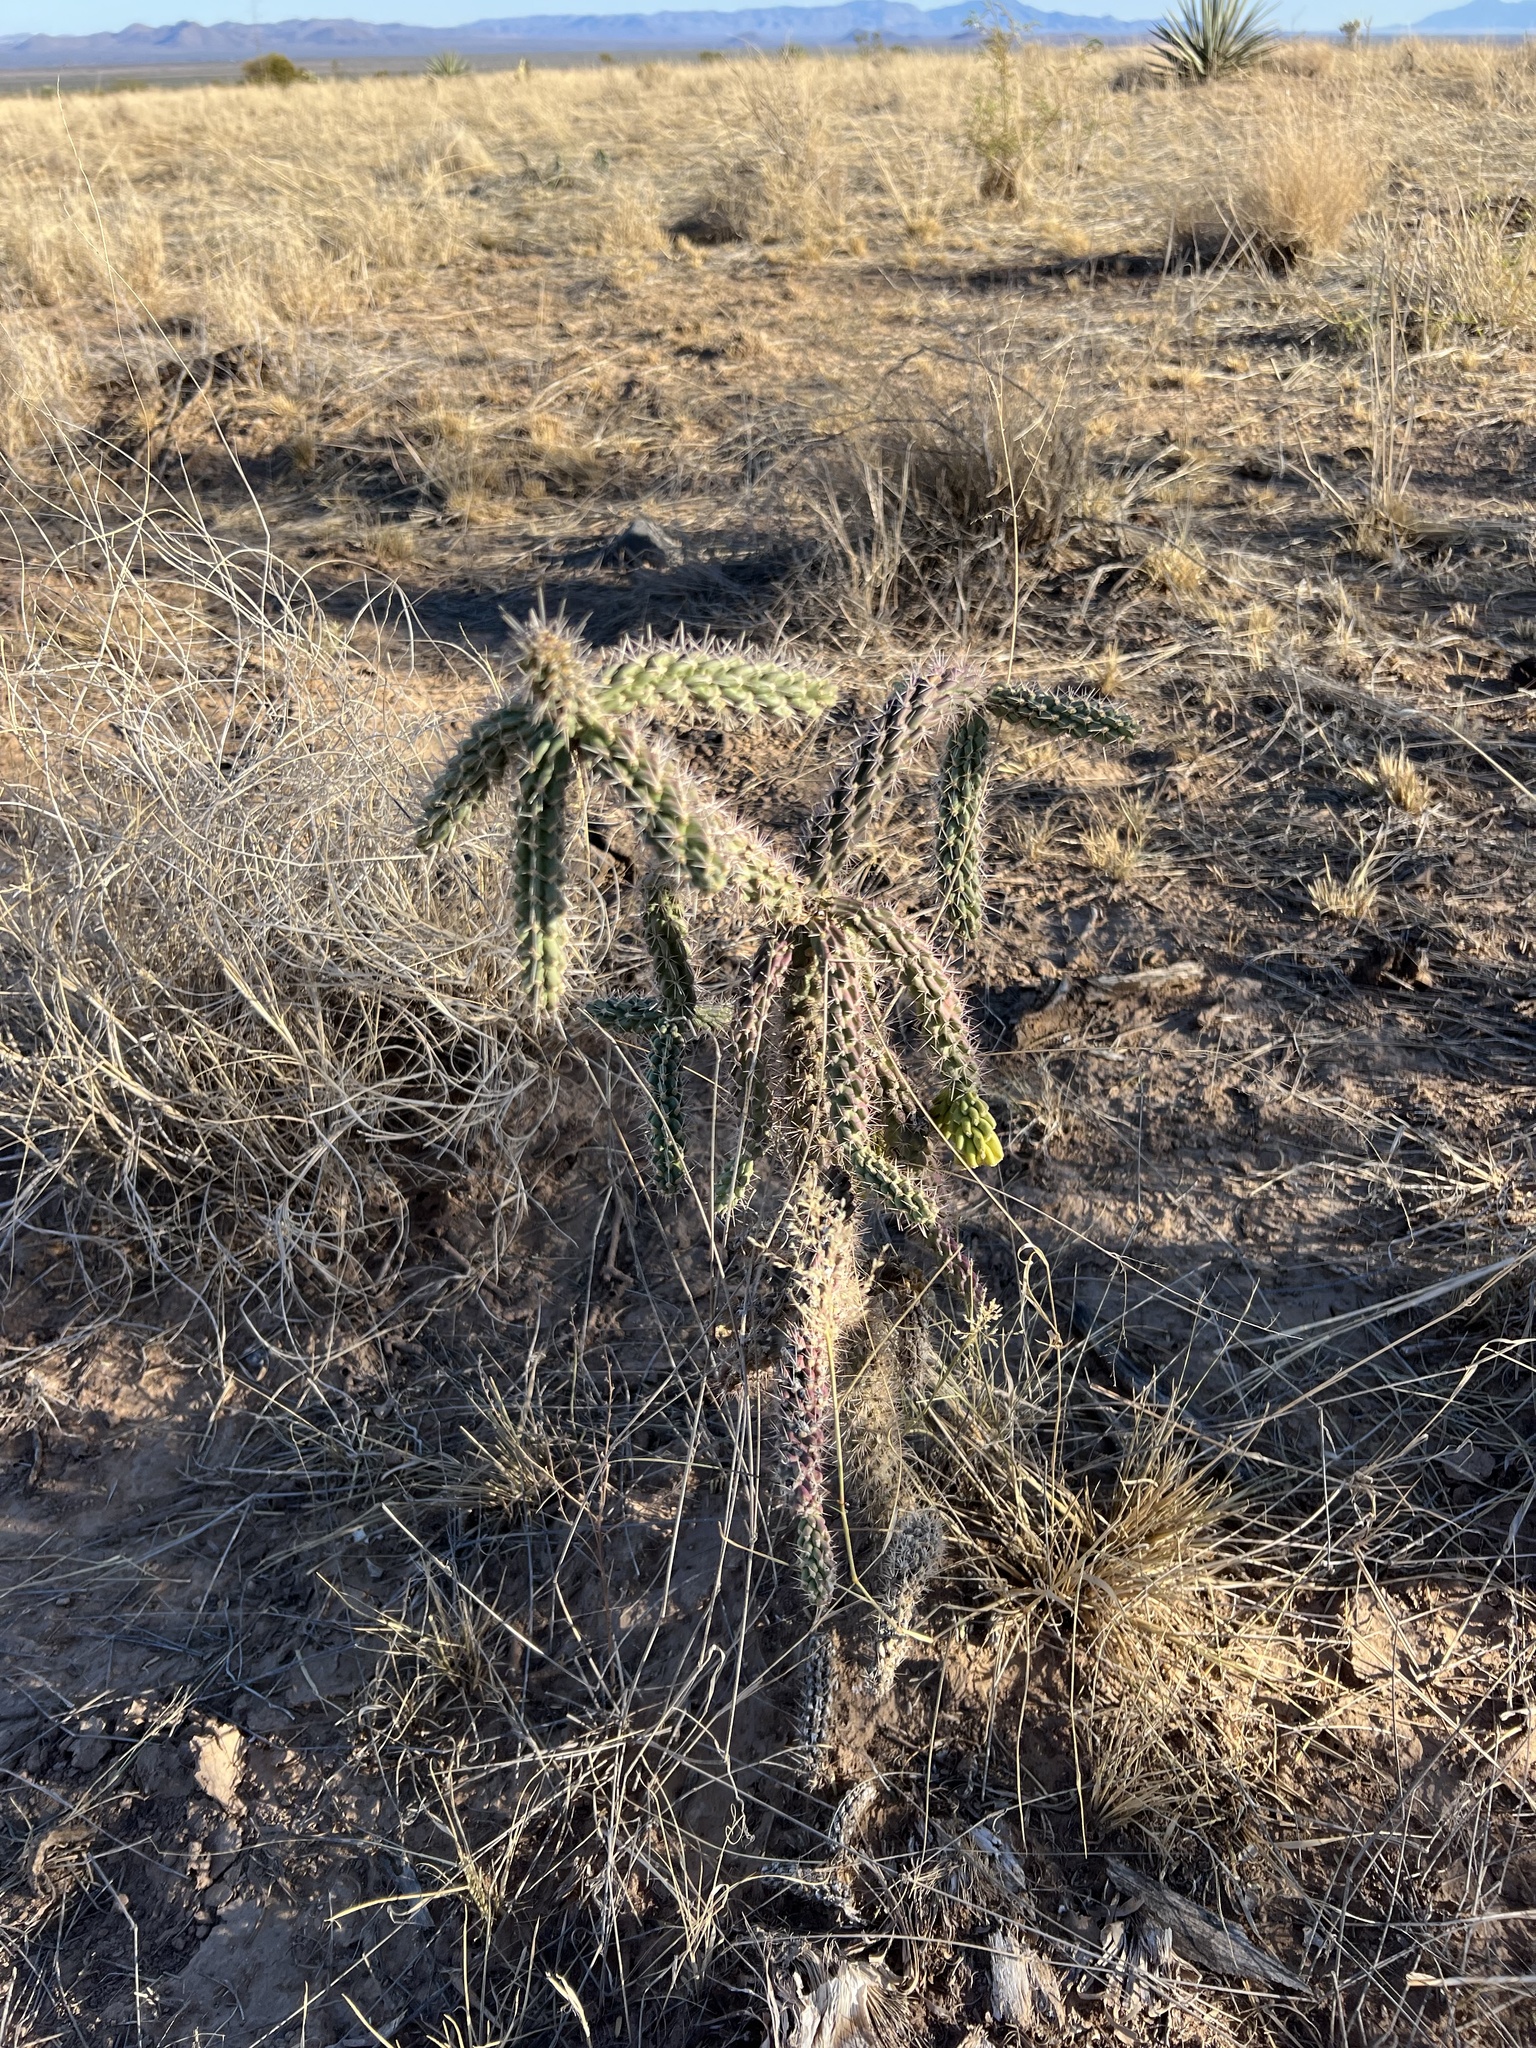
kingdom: Plantae
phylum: Tracheophyta
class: Magnoliopsida
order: Caryophyllales
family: Cactaceae
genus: Cylindropuntia
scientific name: Cylindropuntia imbricata
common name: Candelabrum cactus
